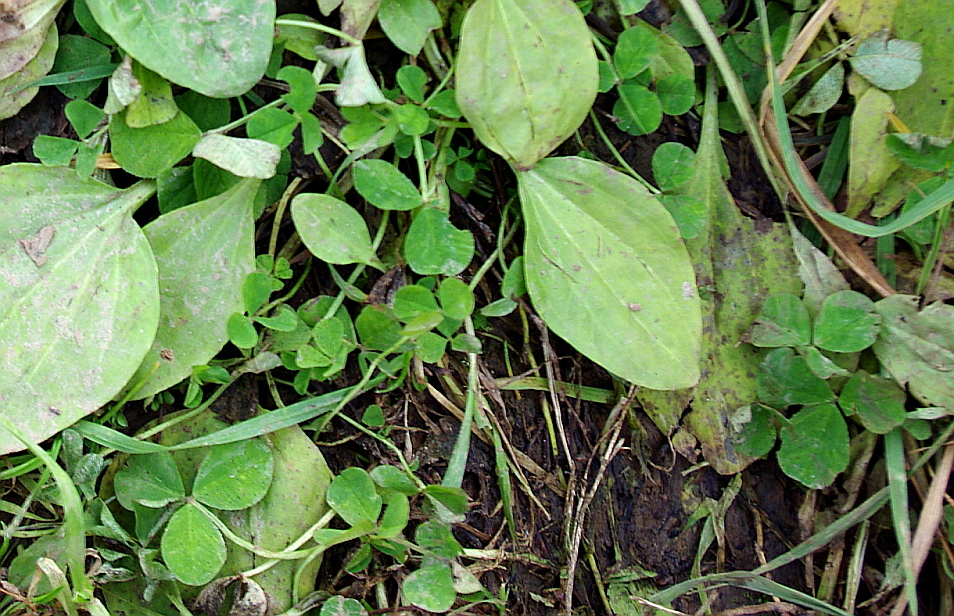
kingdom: Plantae
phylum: Tracheophyta
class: Magnoliopsida
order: Fabales
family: Fabaceae
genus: Trifolium
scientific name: Trifolium repens
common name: White clover
